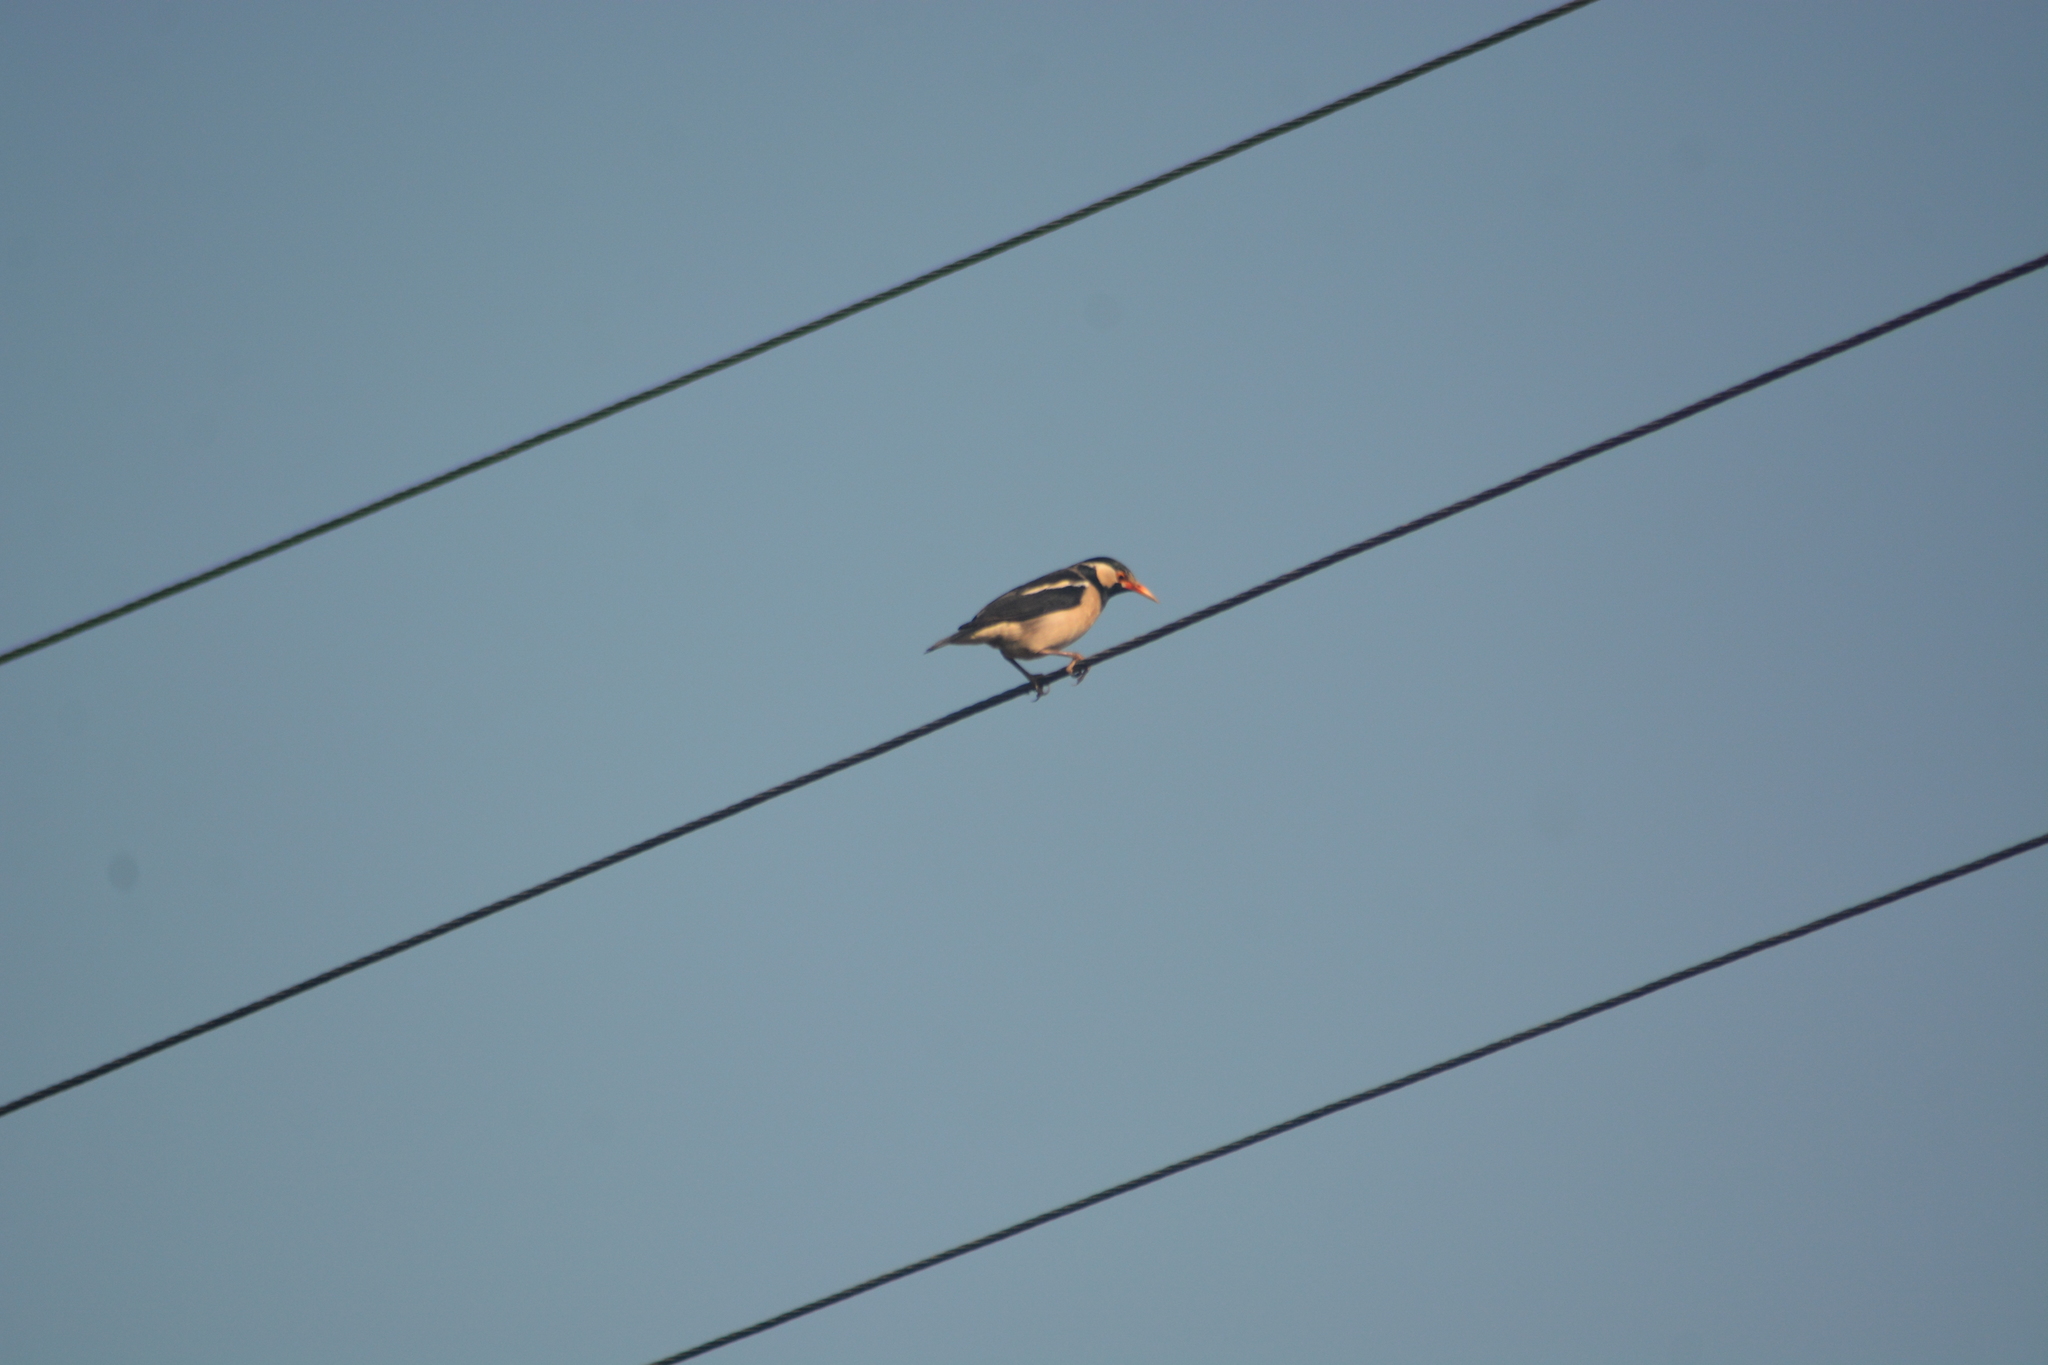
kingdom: Animalia
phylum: Chordata
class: Aves
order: Passeriformes
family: Sturnidae
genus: Gracupica
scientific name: Gracupica contra
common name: Pied myna
